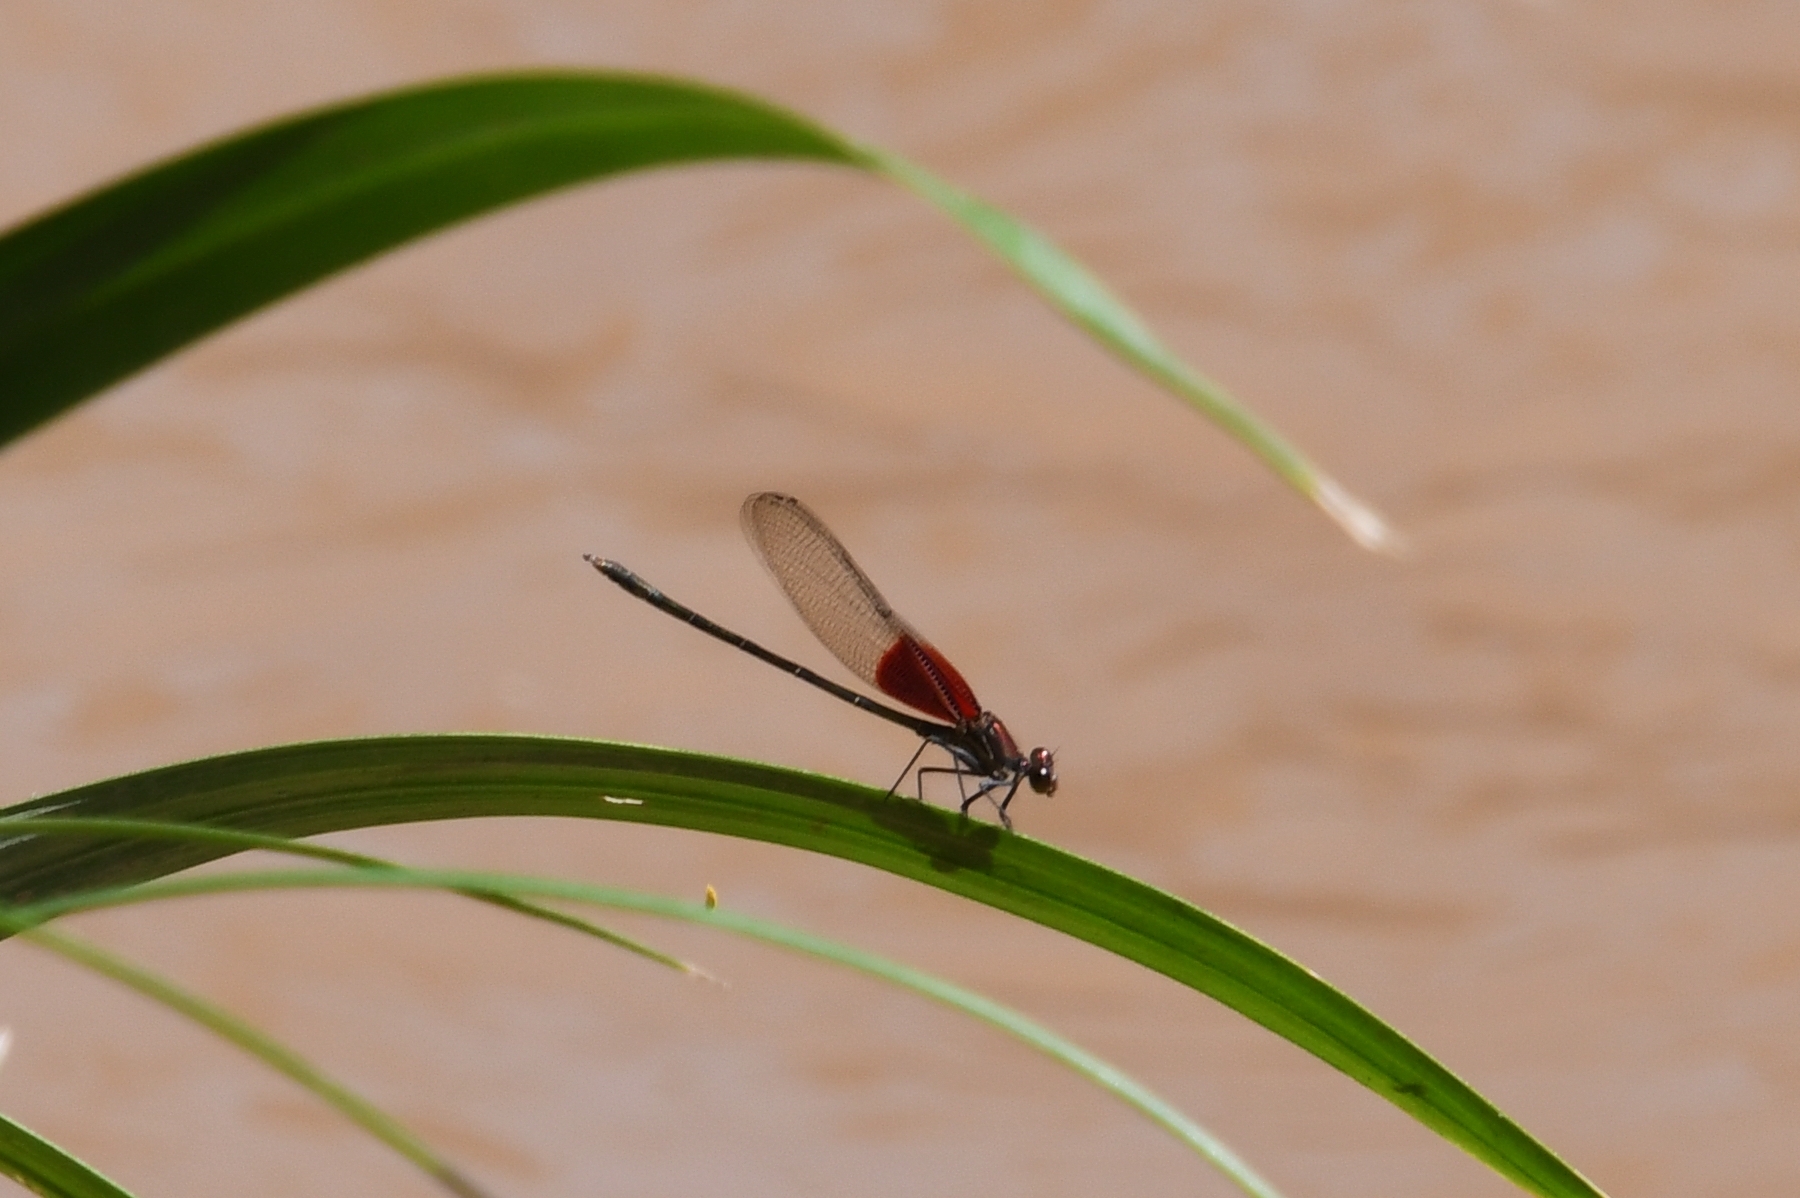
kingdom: Animalia
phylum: Arthropoda
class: Insecta
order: Odonata
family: Calopterygidae
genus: Hetaerina
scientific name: Hetaerina americana
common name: American rubyspot
